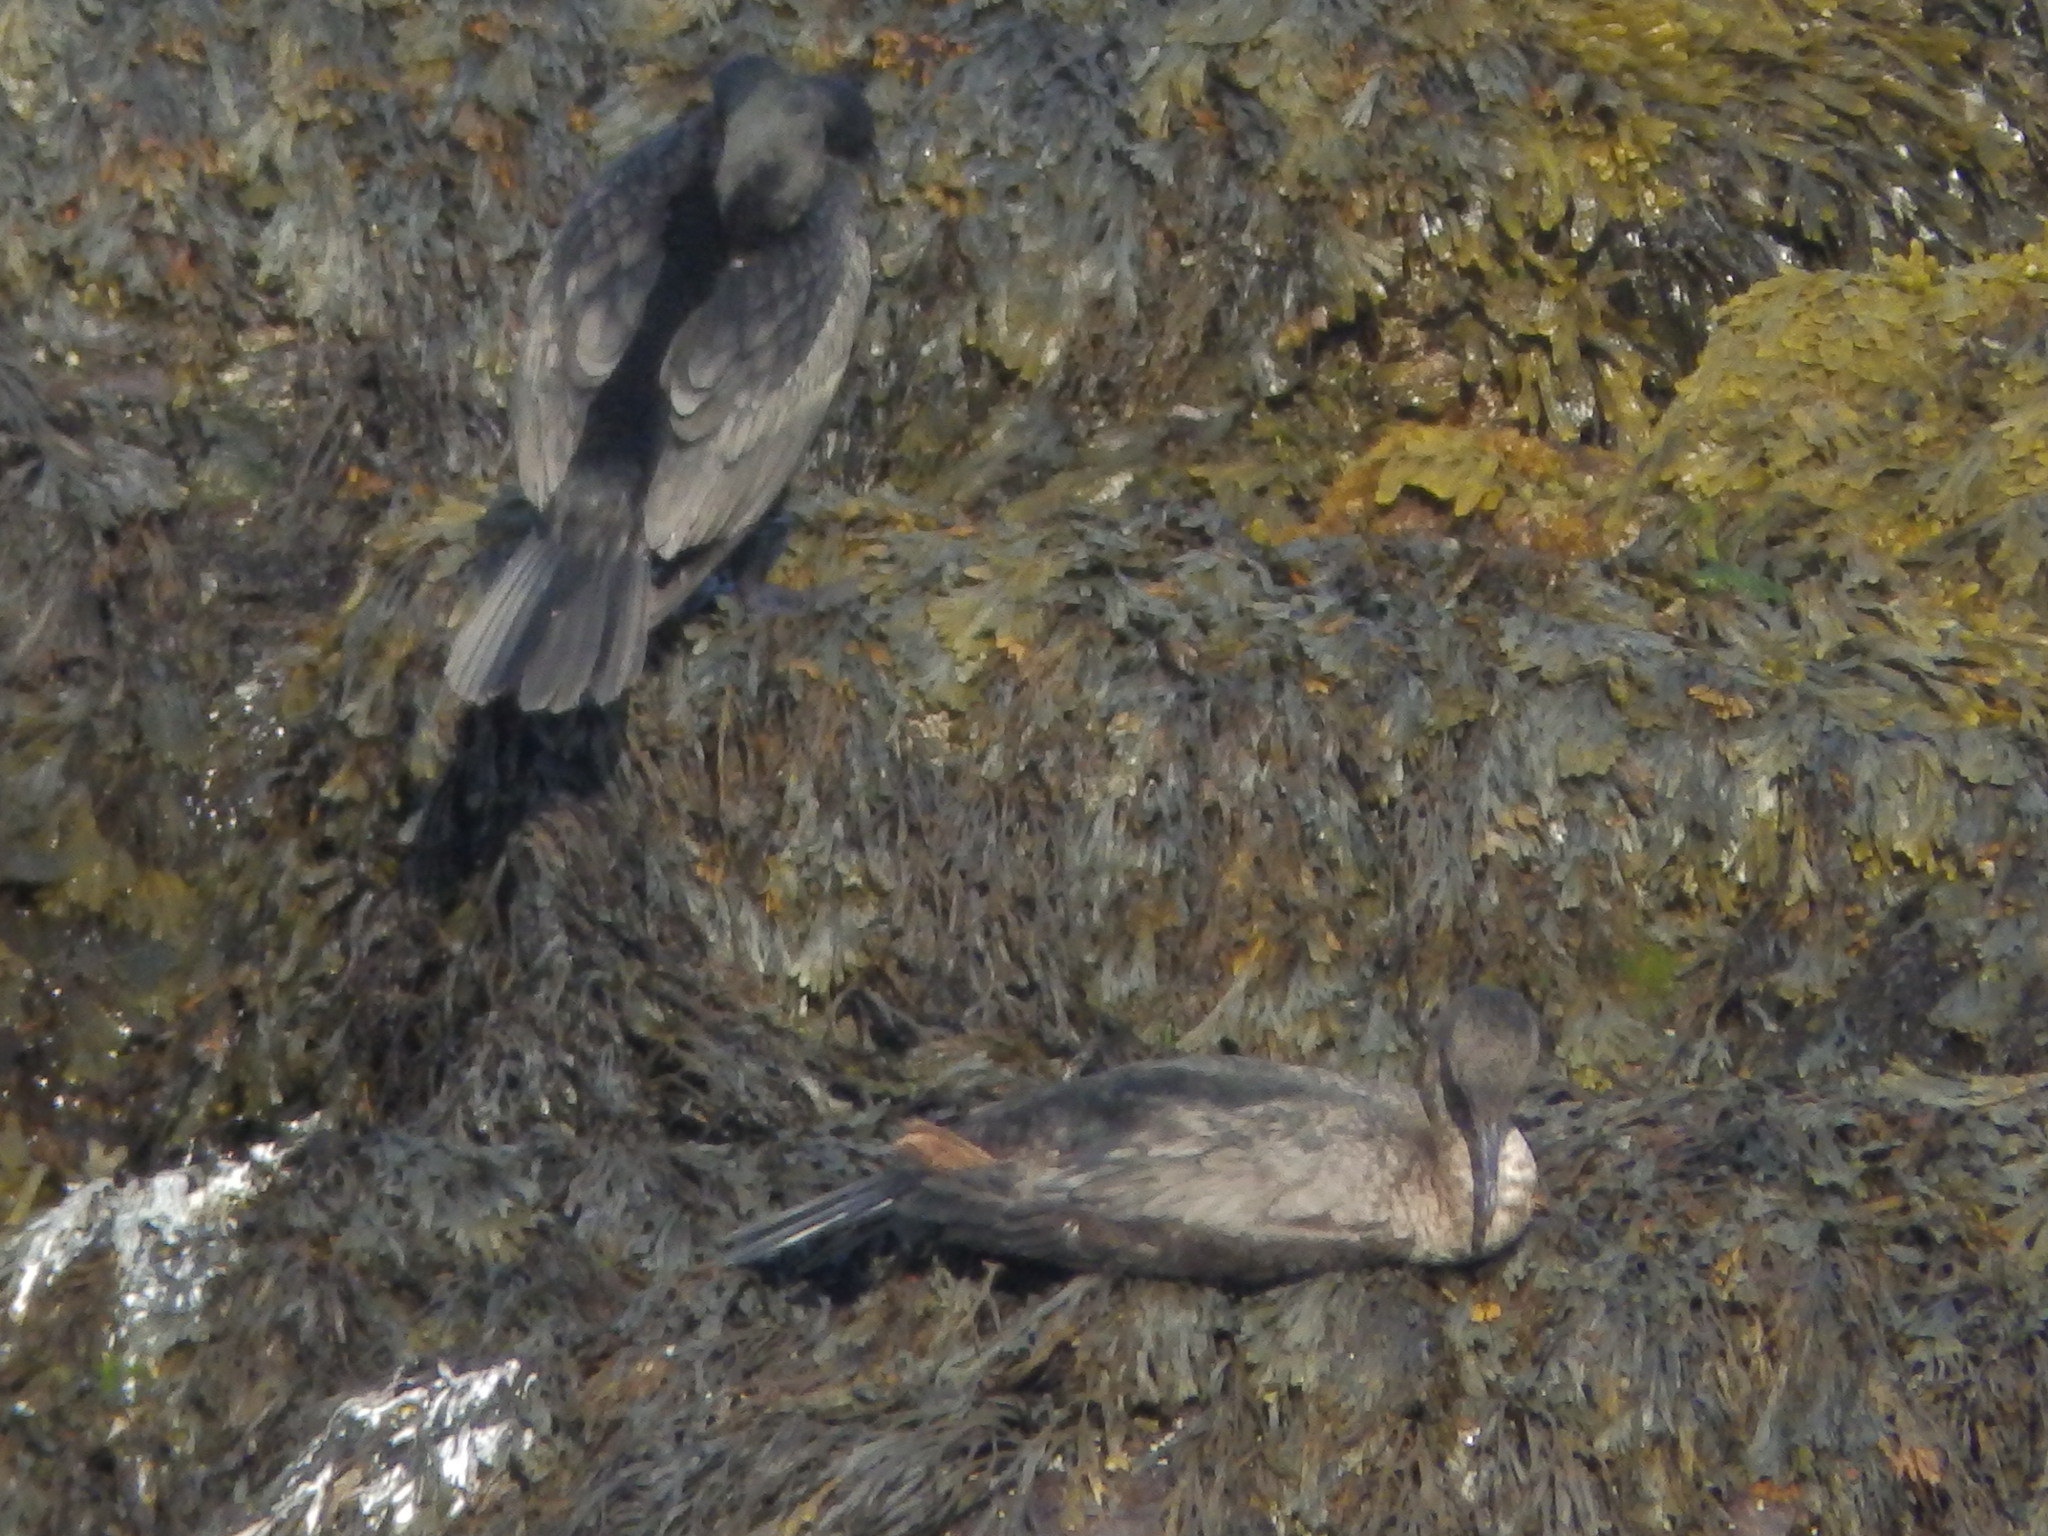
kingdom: Animalia
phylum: Chordata
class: Aves
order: Suliformes
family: Phalacrocoracidae
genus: Phalacrocorax
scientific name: Phalacrocorax auritus
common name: Double-crested cormorant
